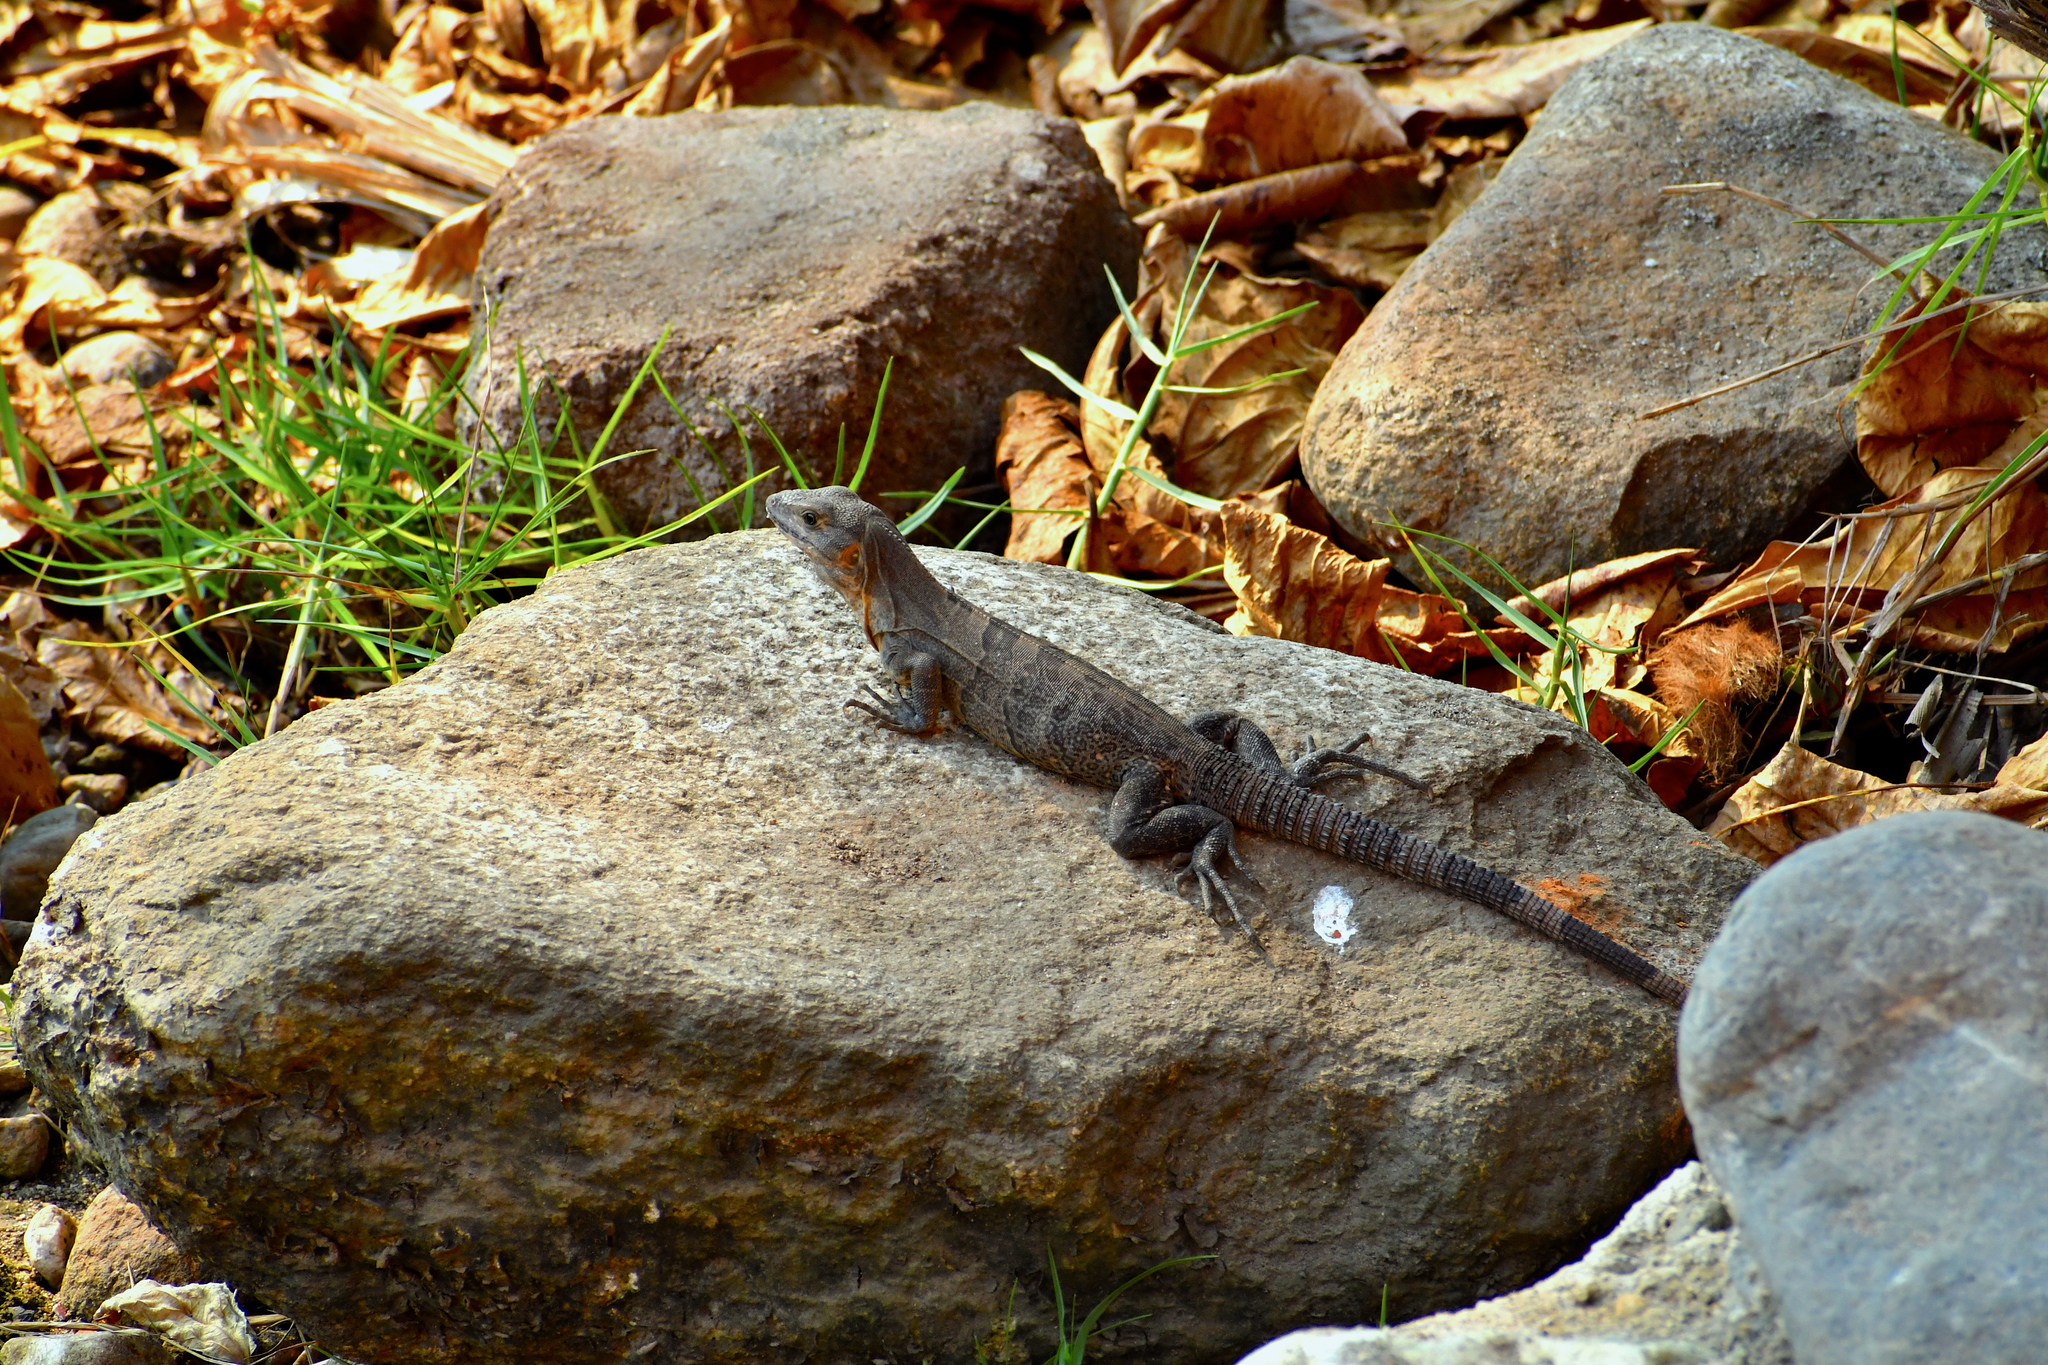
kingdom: Animalia
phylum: Chordata
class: Squamata
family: Iguanidae
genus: Ctenosaura
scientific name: Ctenosaura similis
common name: Black spiny-tailed iguana
